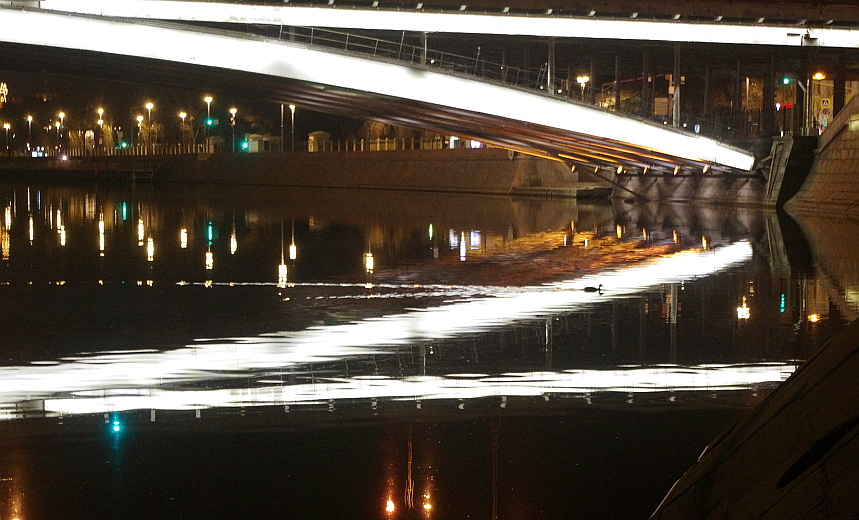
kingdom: Animalia
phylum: Chordata
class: Aves
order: Anseriformes
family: Anatidae
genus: Anas
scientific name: Anas platyrhynchos
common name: Mallard
